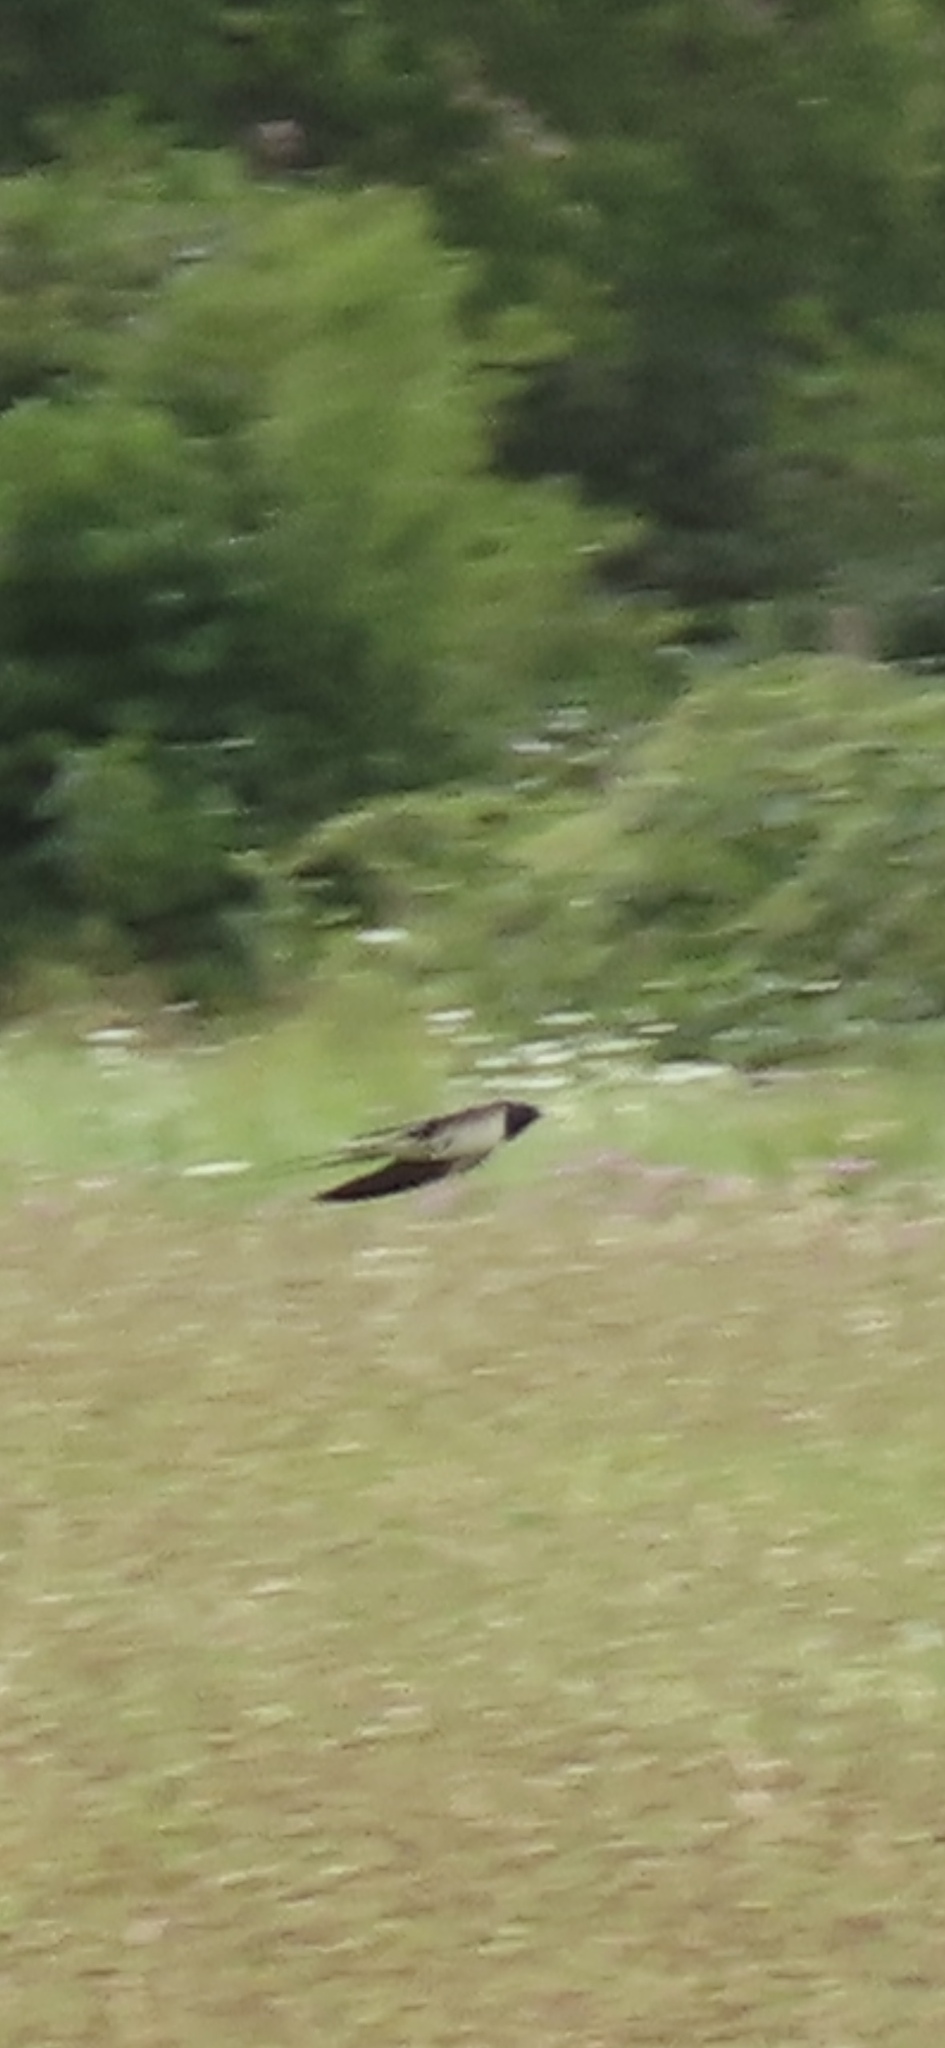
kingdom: Animalia
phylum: Chordata
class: Aves
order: Passeriformes
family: Hirundinidae
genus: Hirundo
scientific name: Hirundo rustica
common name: Barn swallow
